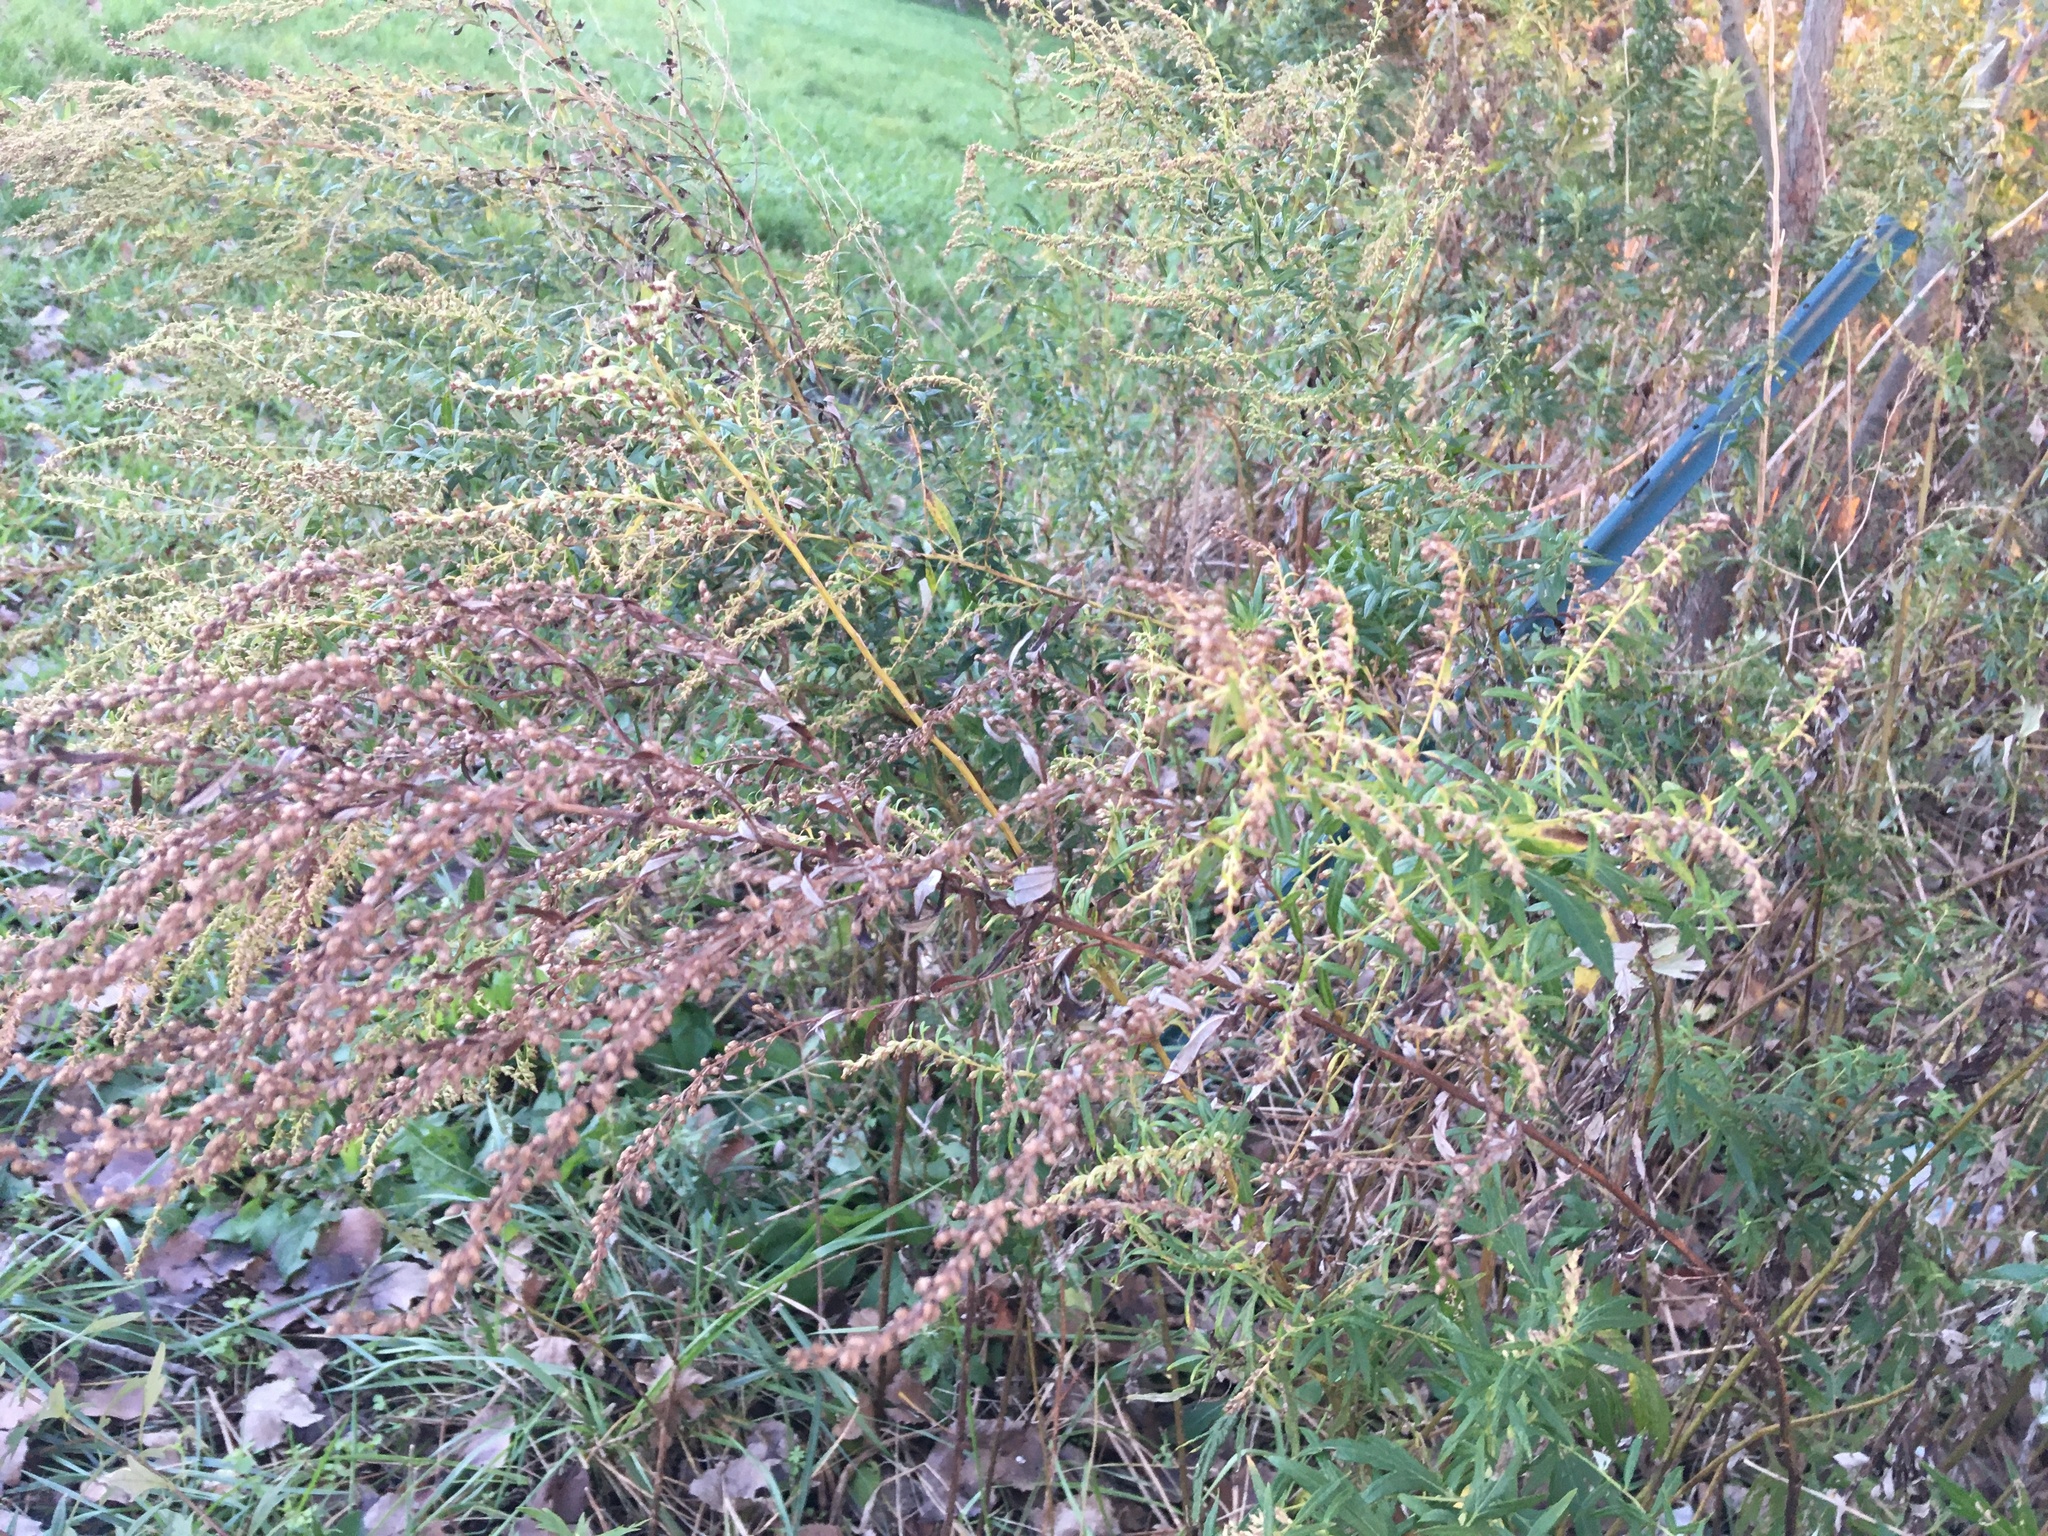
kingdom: Plantae
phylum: Tracheophyta
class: Magnoliopsida
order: Asterales
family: Asteraceae
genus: Artemisia
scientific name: Artemisia vulgaris
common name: Mugwort
